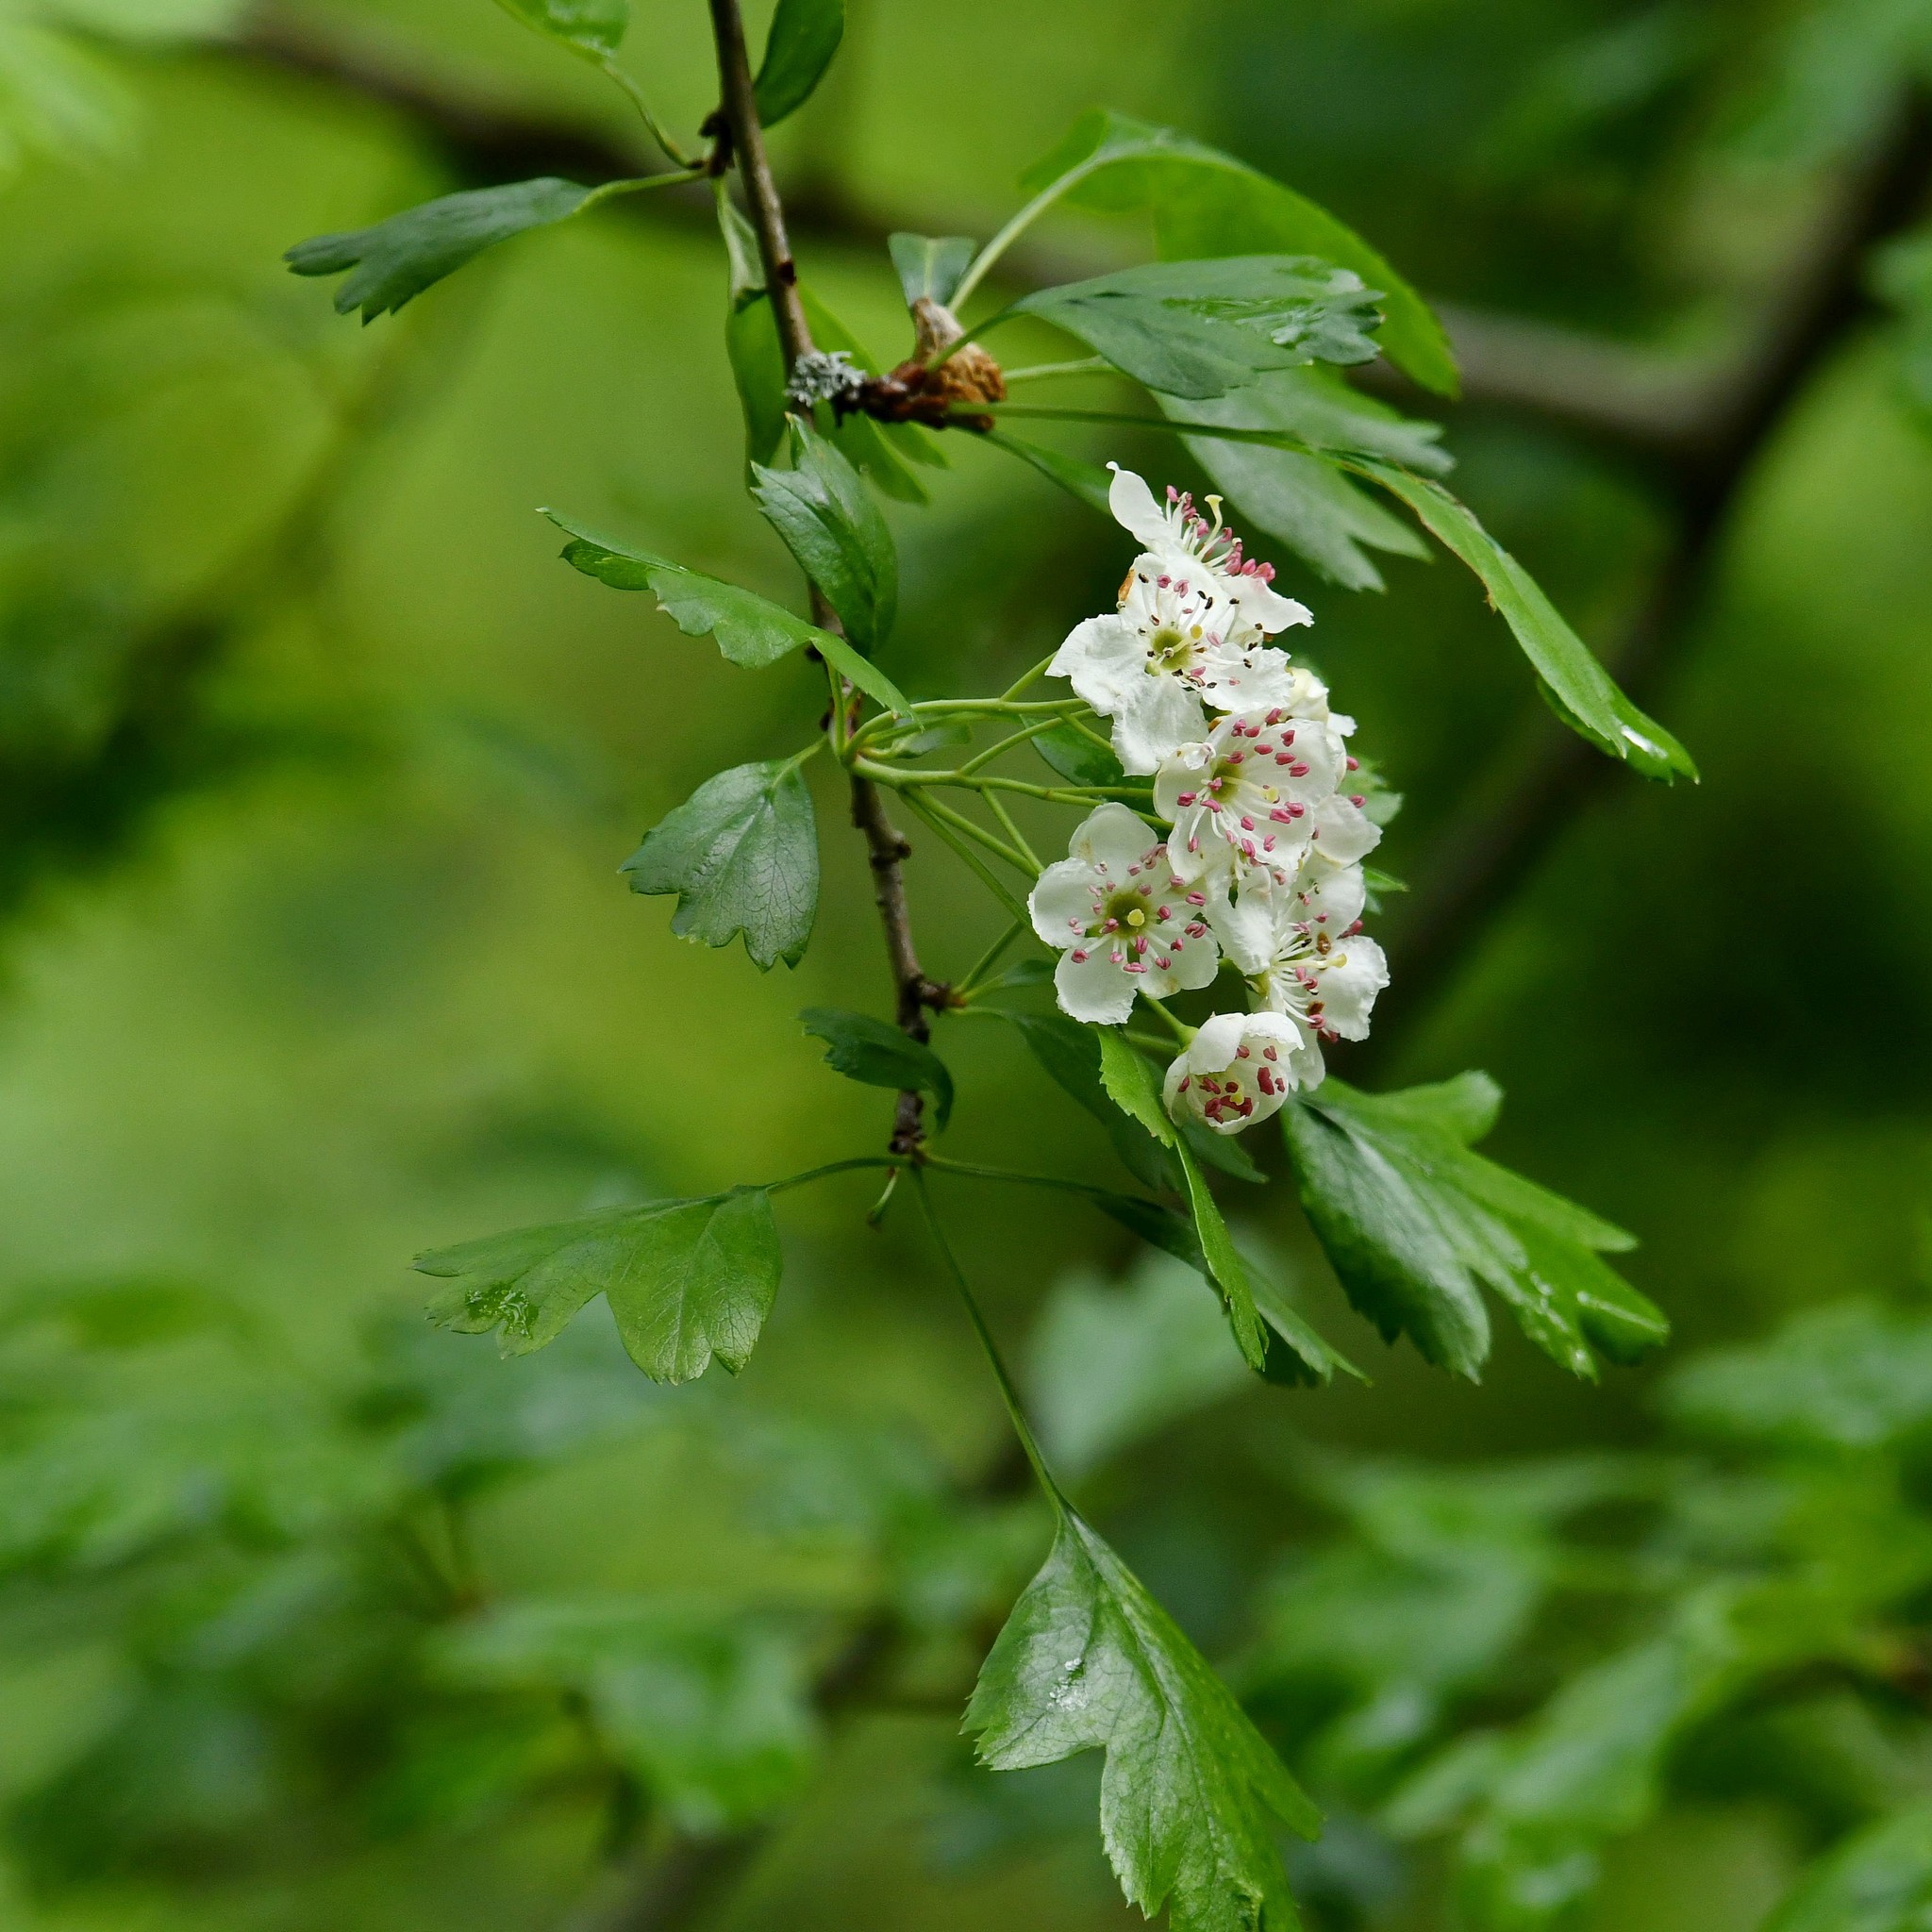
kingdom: Plantae
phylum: Tracheophyta
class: Magnoliopsida
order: Rosales
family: Rosaceae
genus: Crataegus
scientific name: Crataegus monogyna
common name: Hawthorn
